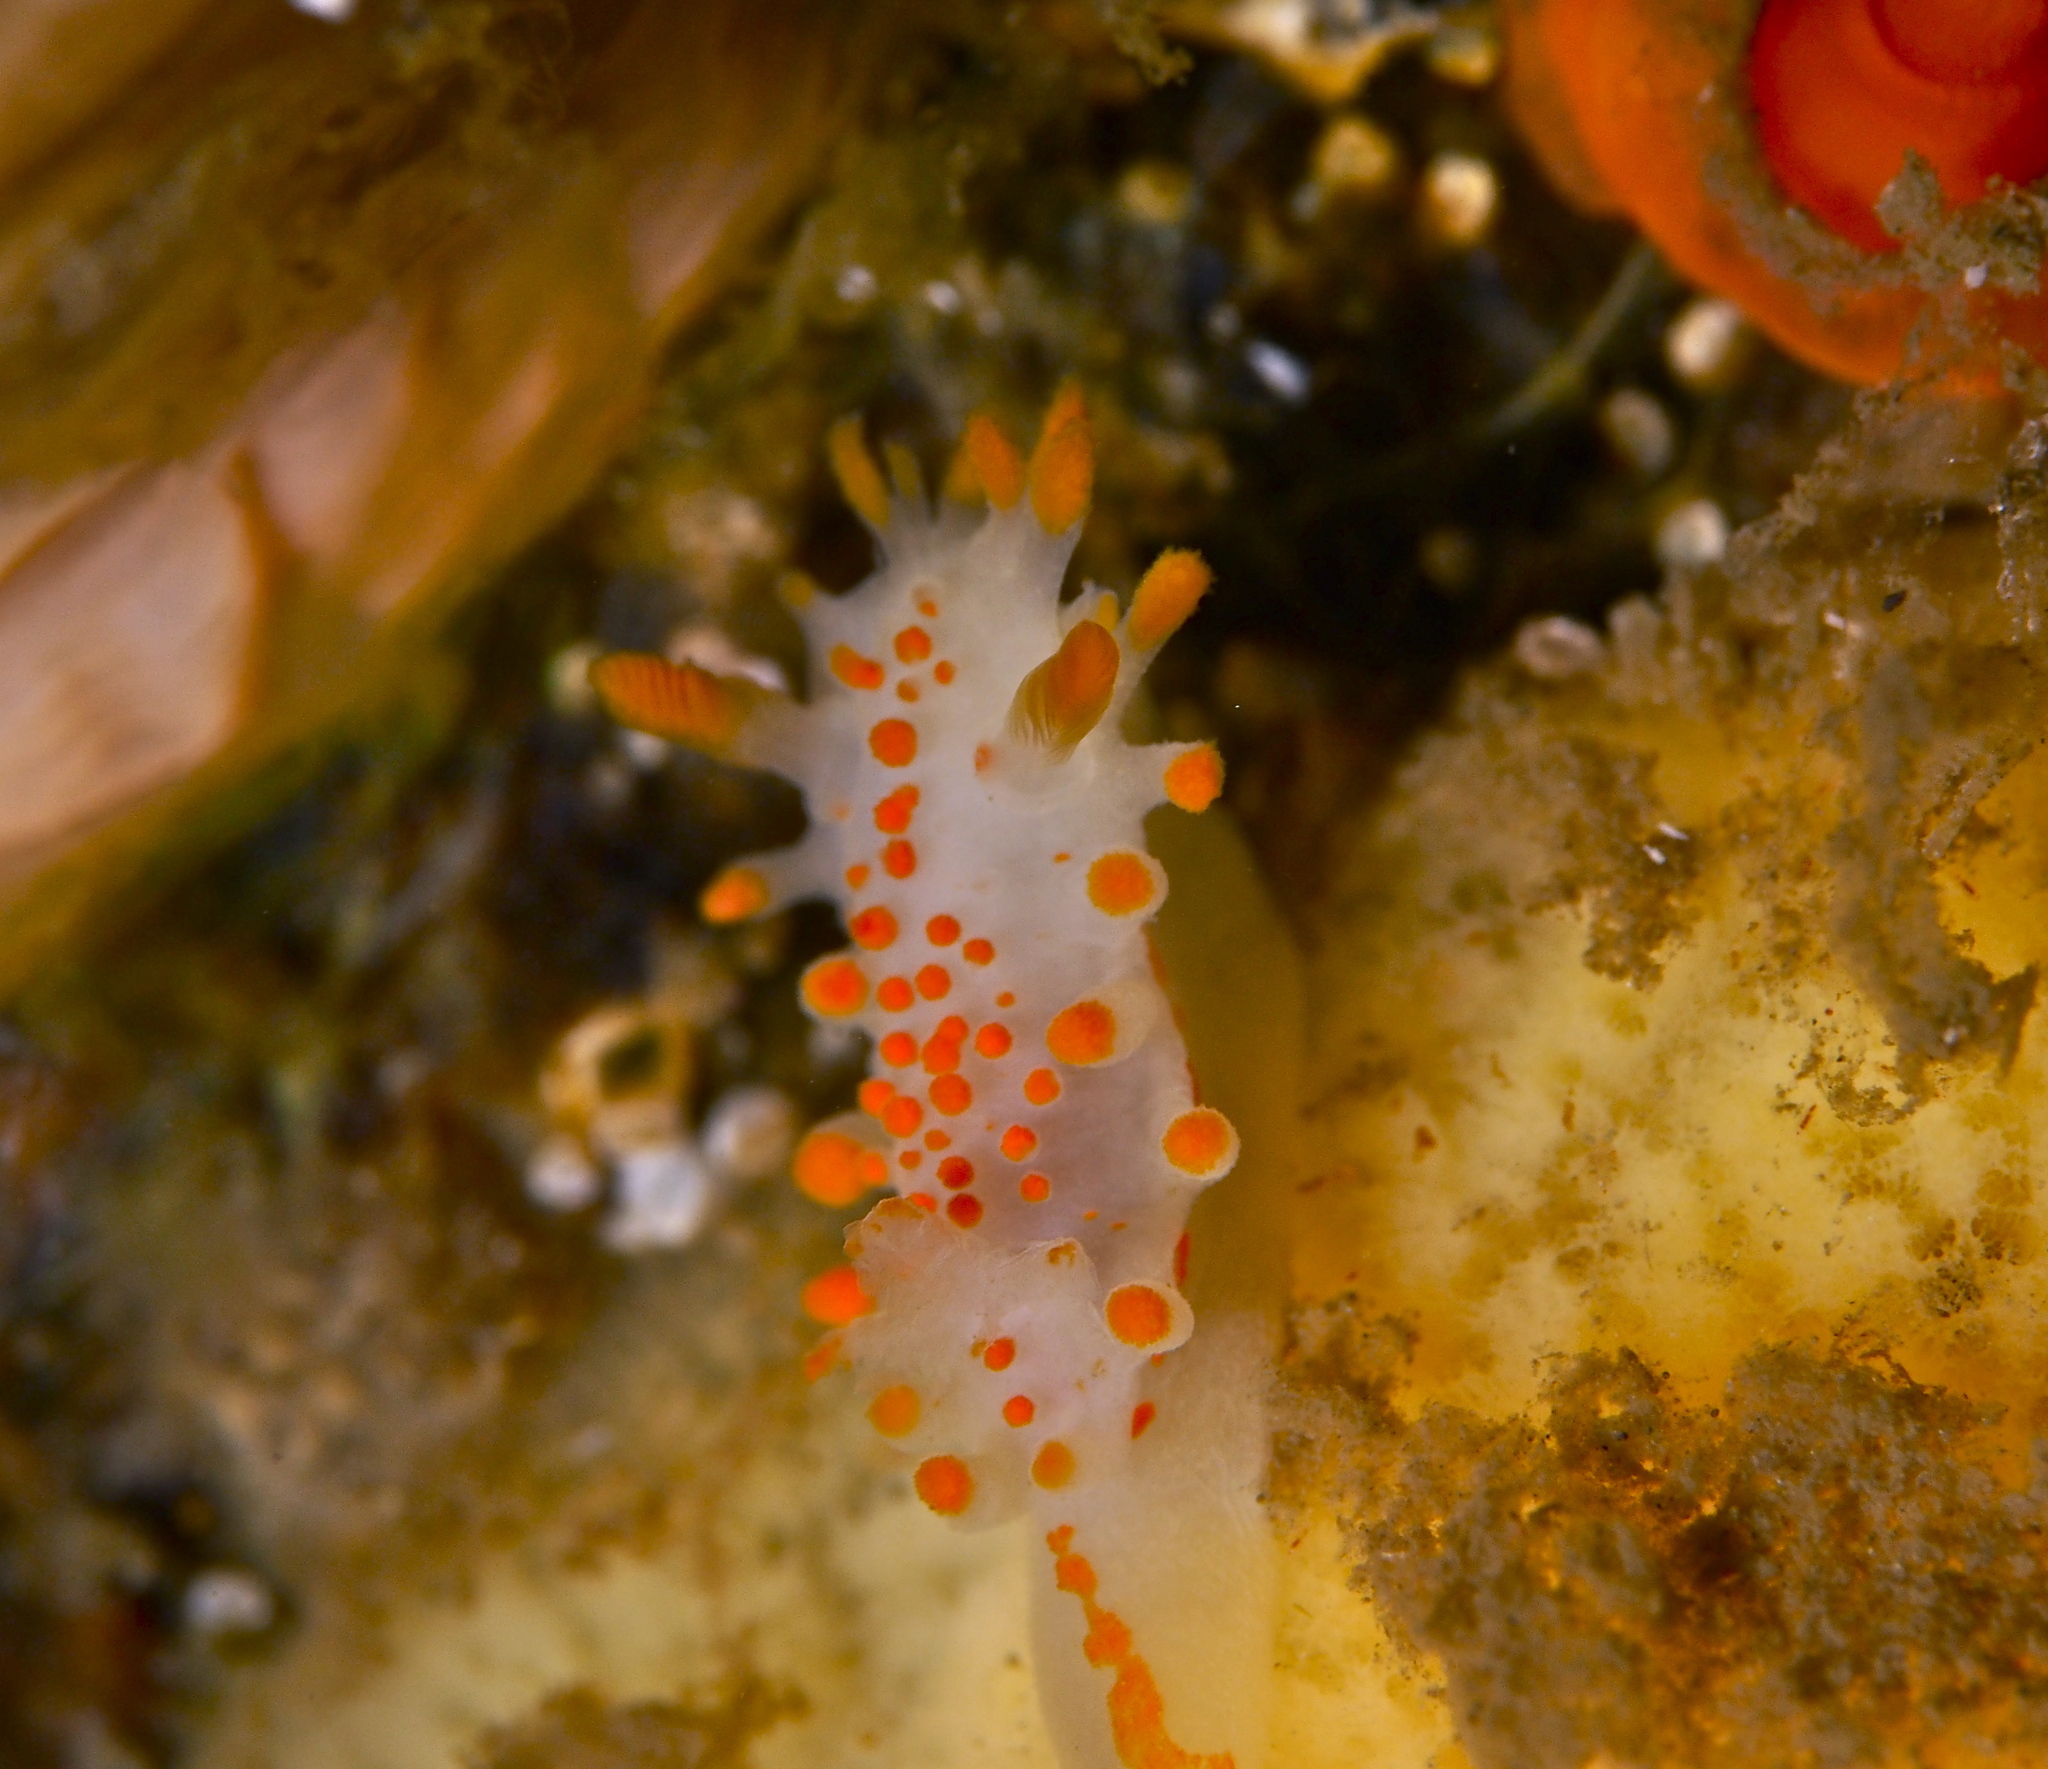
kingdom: Animalia
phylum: Mollusca
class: Gastropoda
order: Nudibranchia
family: Polyceridae
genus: Limacia
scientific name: Limacia clavigera
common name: Orange-clubbed sea slug
